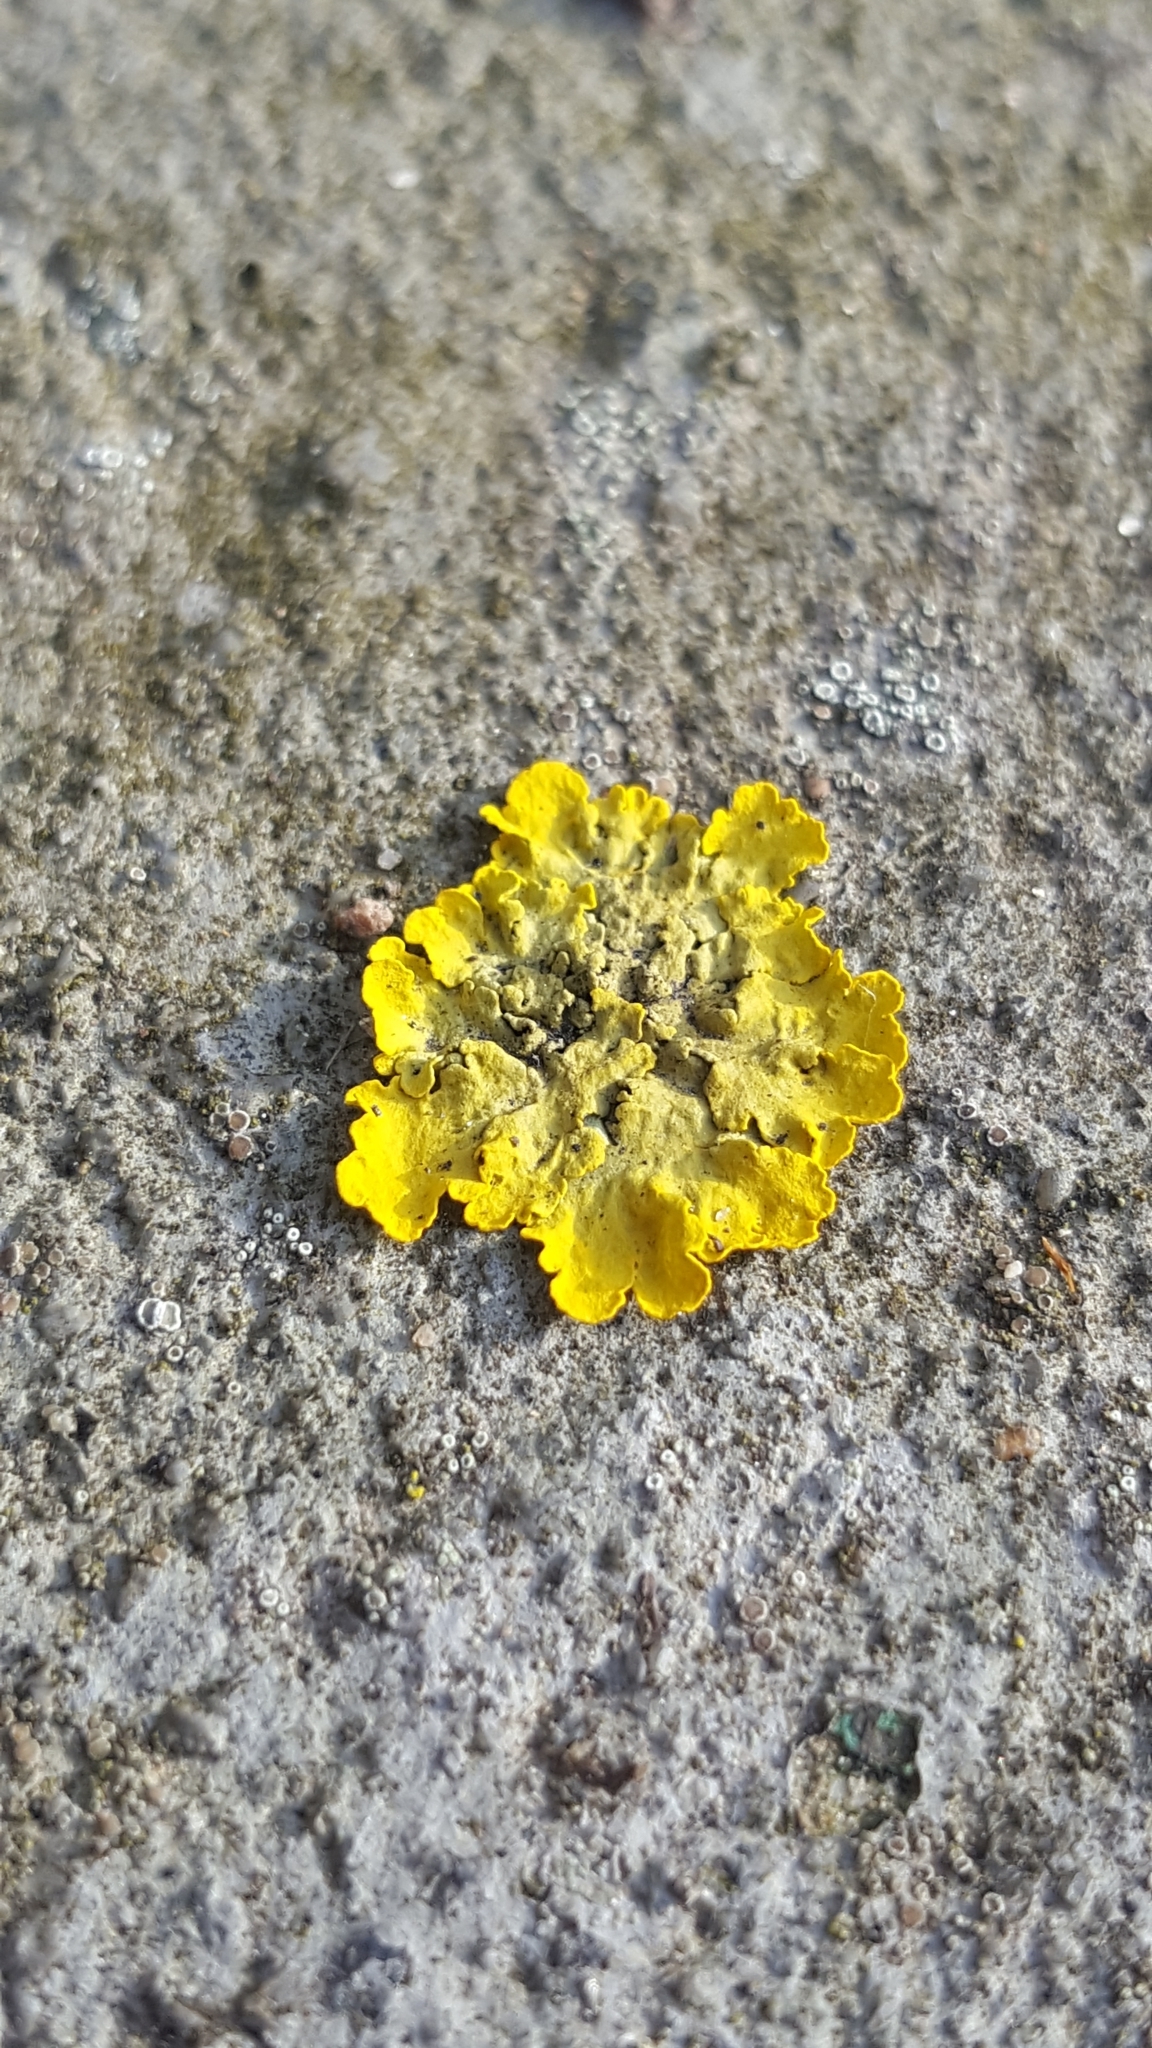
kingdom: Fungi
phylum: Ascomycota
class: Lecanoromycetes
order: Teloschistales
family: Teloschistaceae
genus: Xanthoria
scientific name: Xanthoria parietina
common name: Common orange lichen
